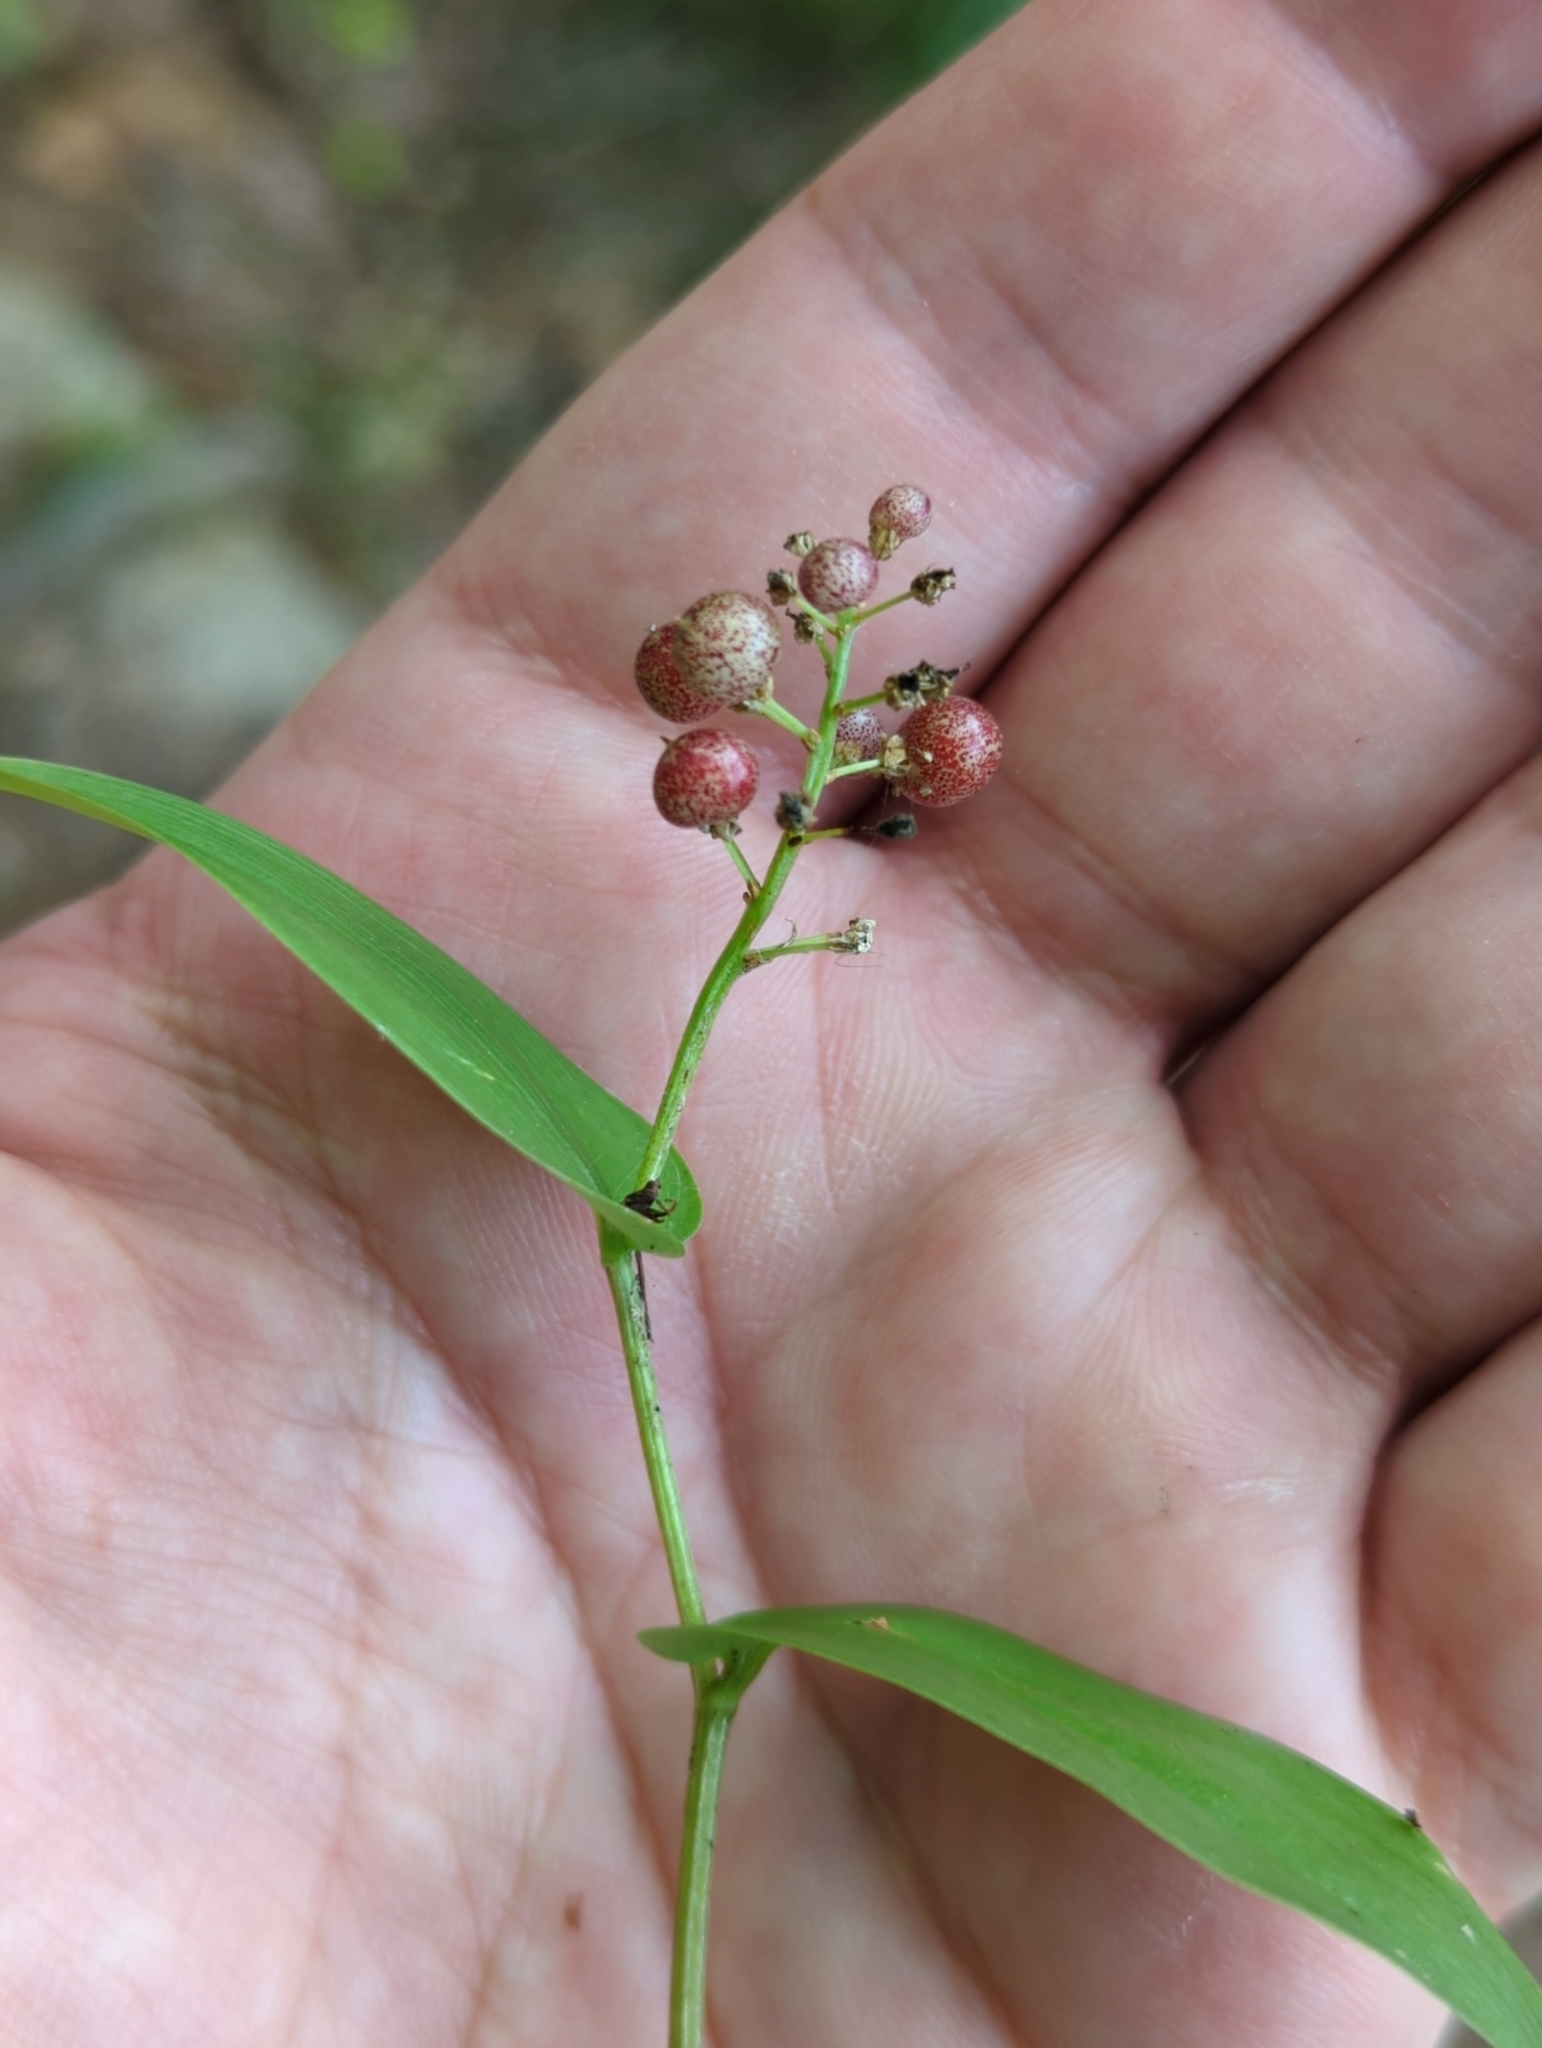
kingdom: Plantae
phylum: Tracheophyta
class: Liliopsida
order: Asparagales
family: Asparagaceae
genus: Maianthemum
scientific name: Maianthemum canadense
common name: False lily-of-the-valley
